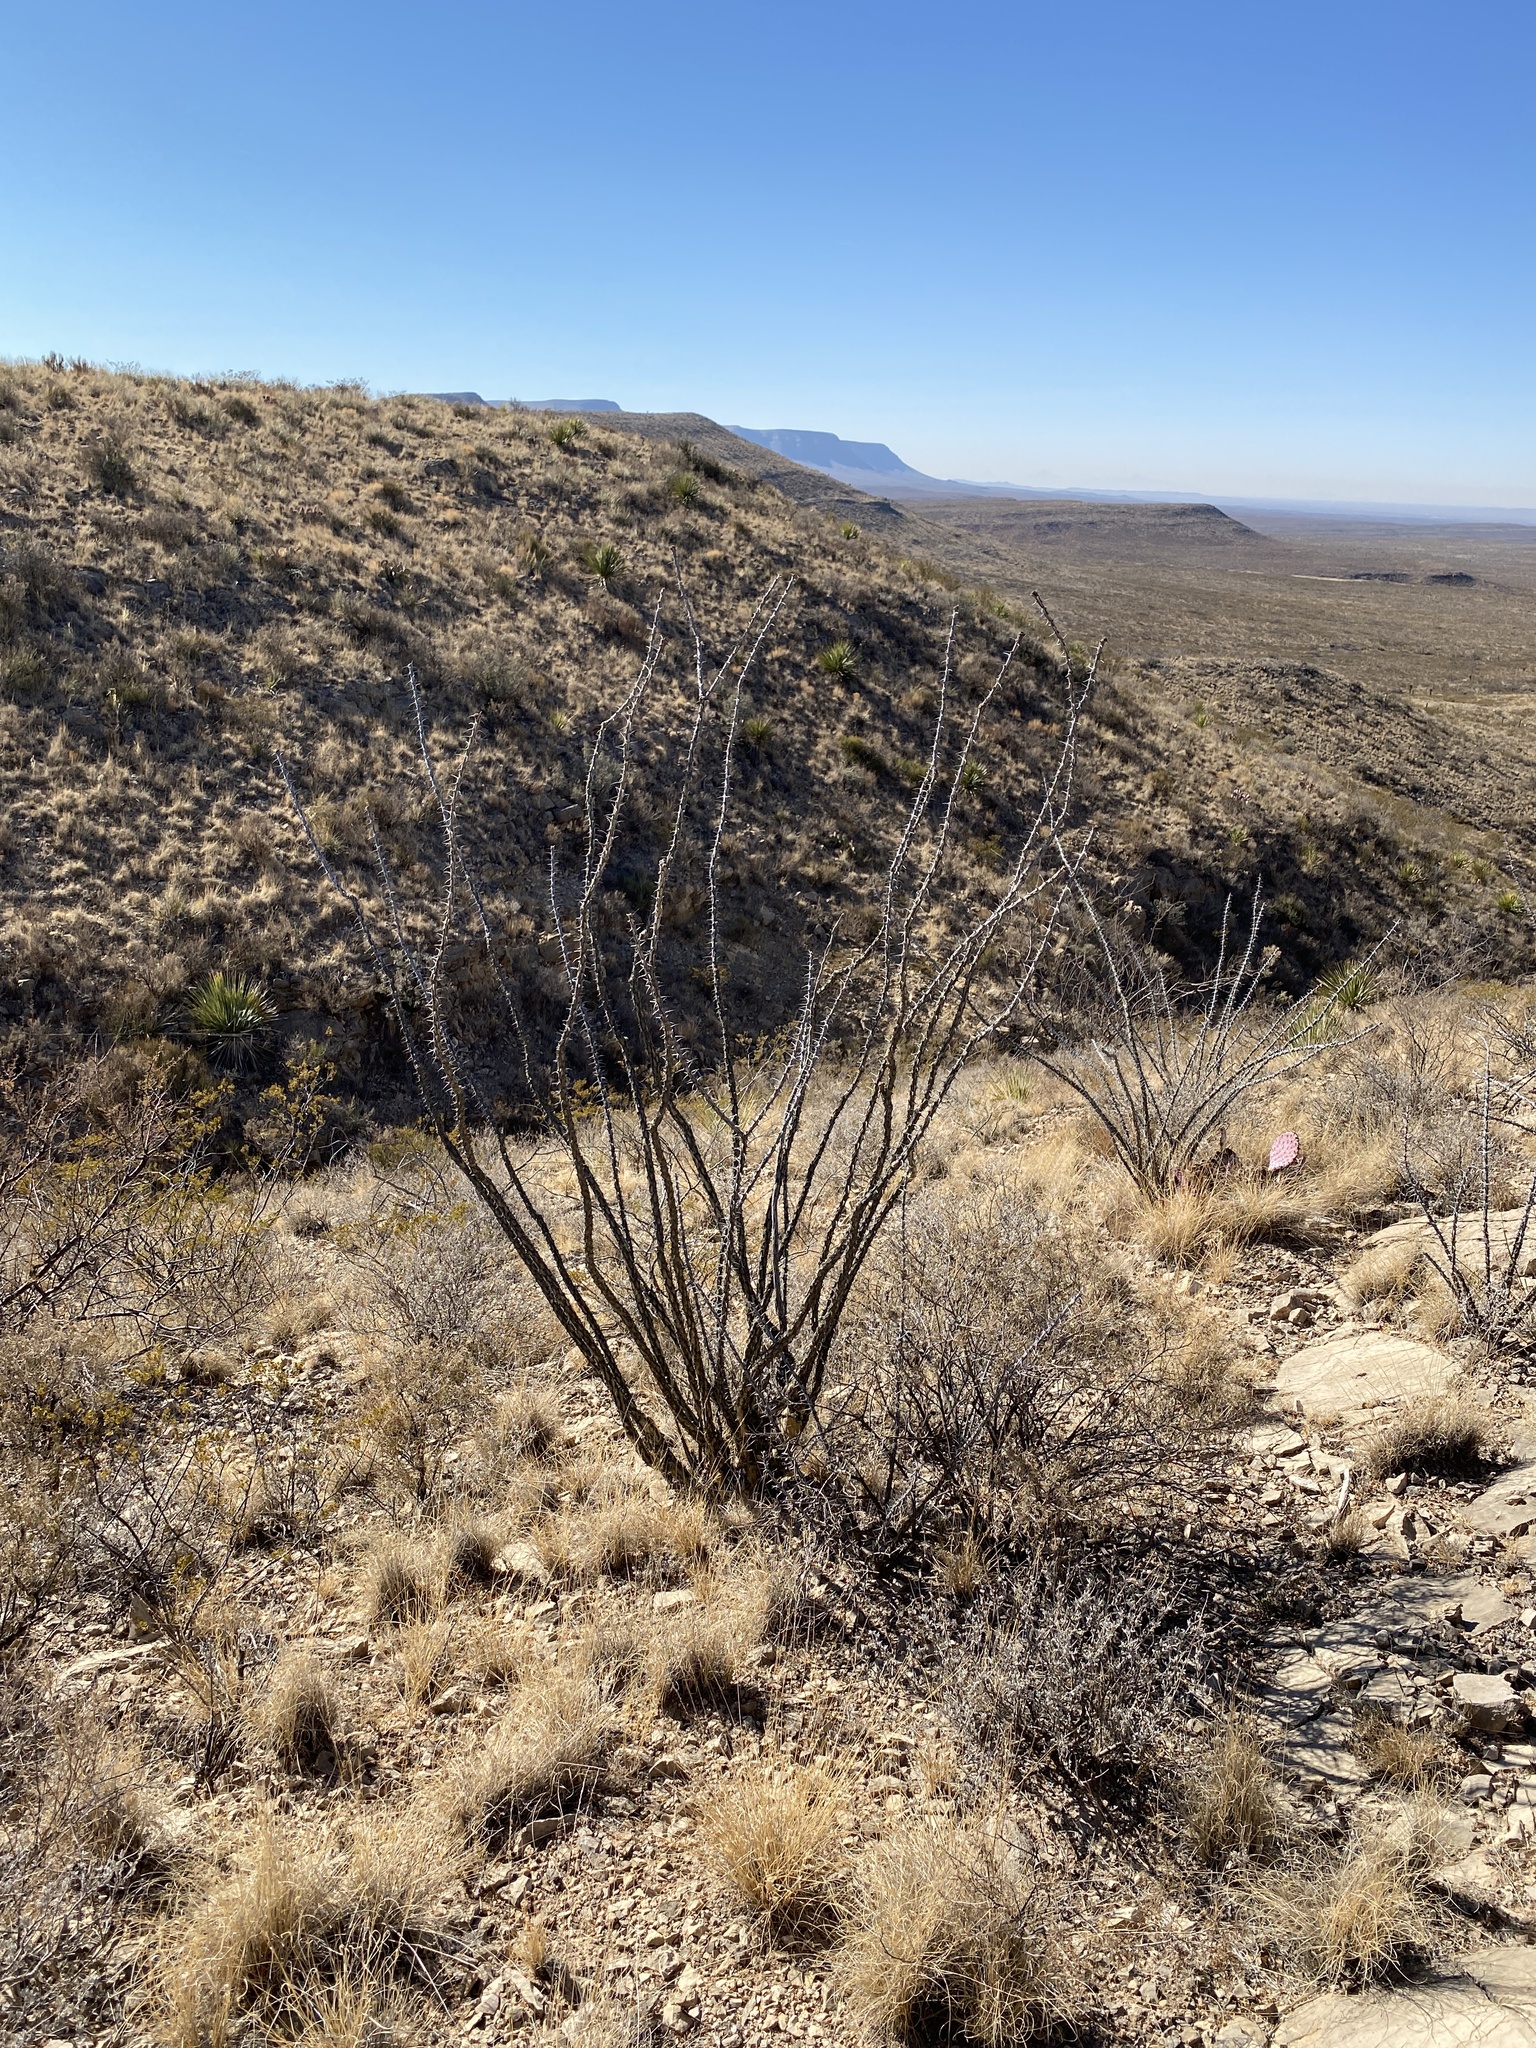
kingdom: Plantae
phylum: Tracheophyta
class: Magnoliopsida
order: Ericales
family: Fouquieriaceae
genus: Fouquieria
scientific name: Fouquieria splendens
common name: Vine-cactus
